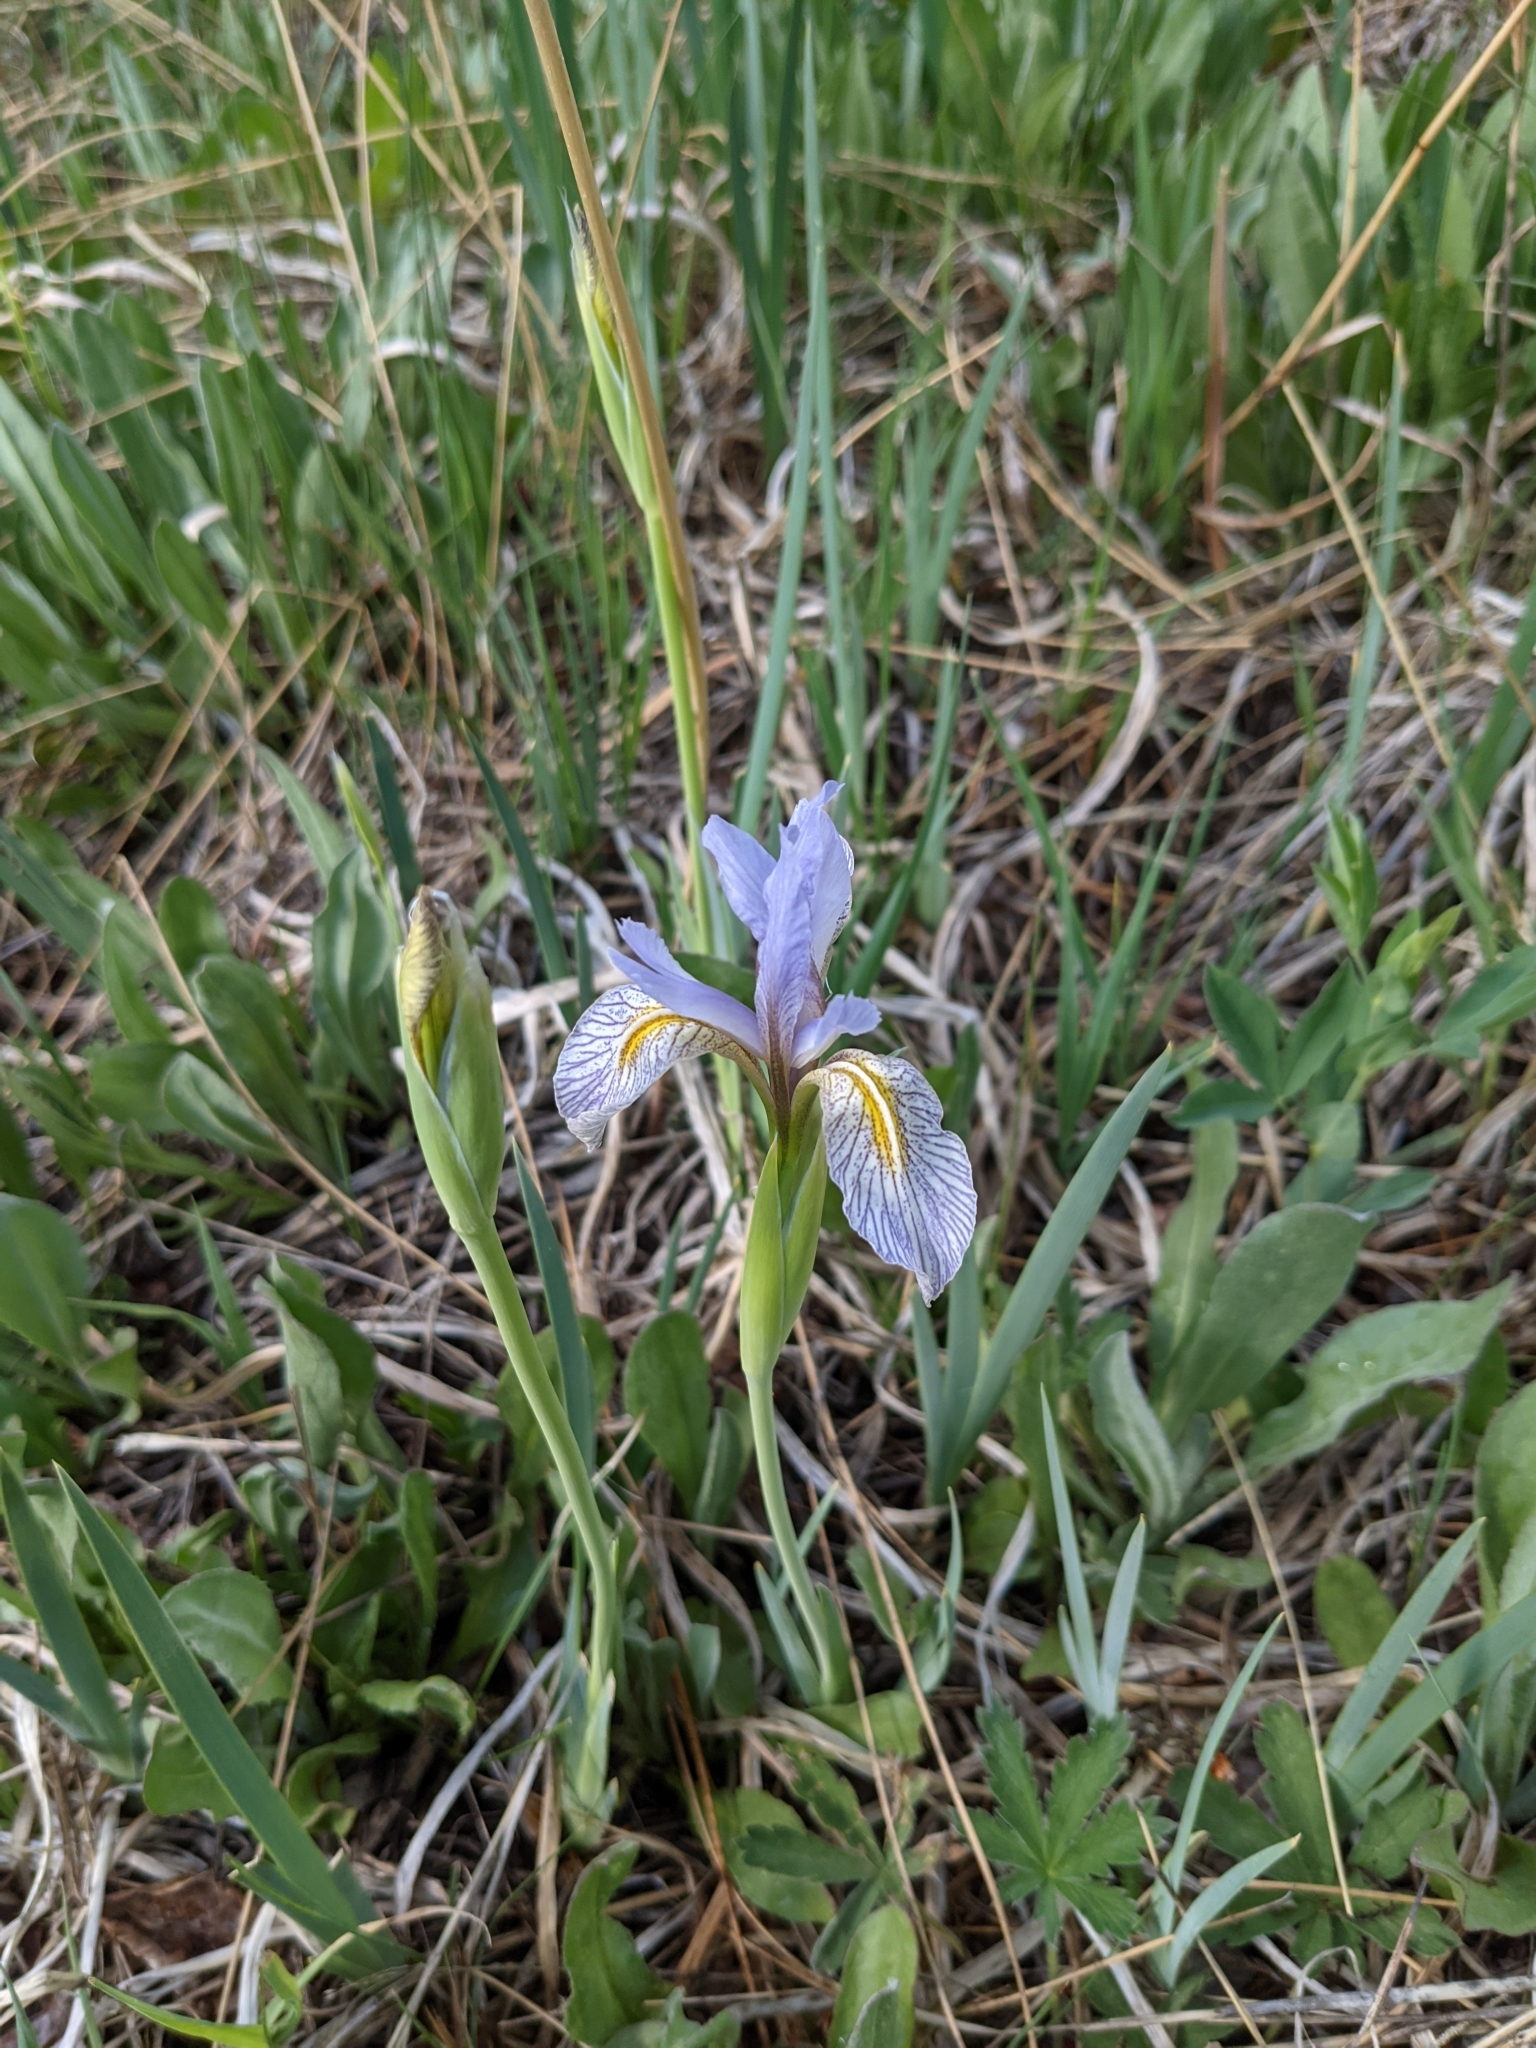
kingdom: Plantae
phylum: Tracheophyta
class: Liliopsida
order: Asparagales
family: Iridaceae
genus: Iris
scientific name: Iris missouriensis
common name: Rocky mountain iris
